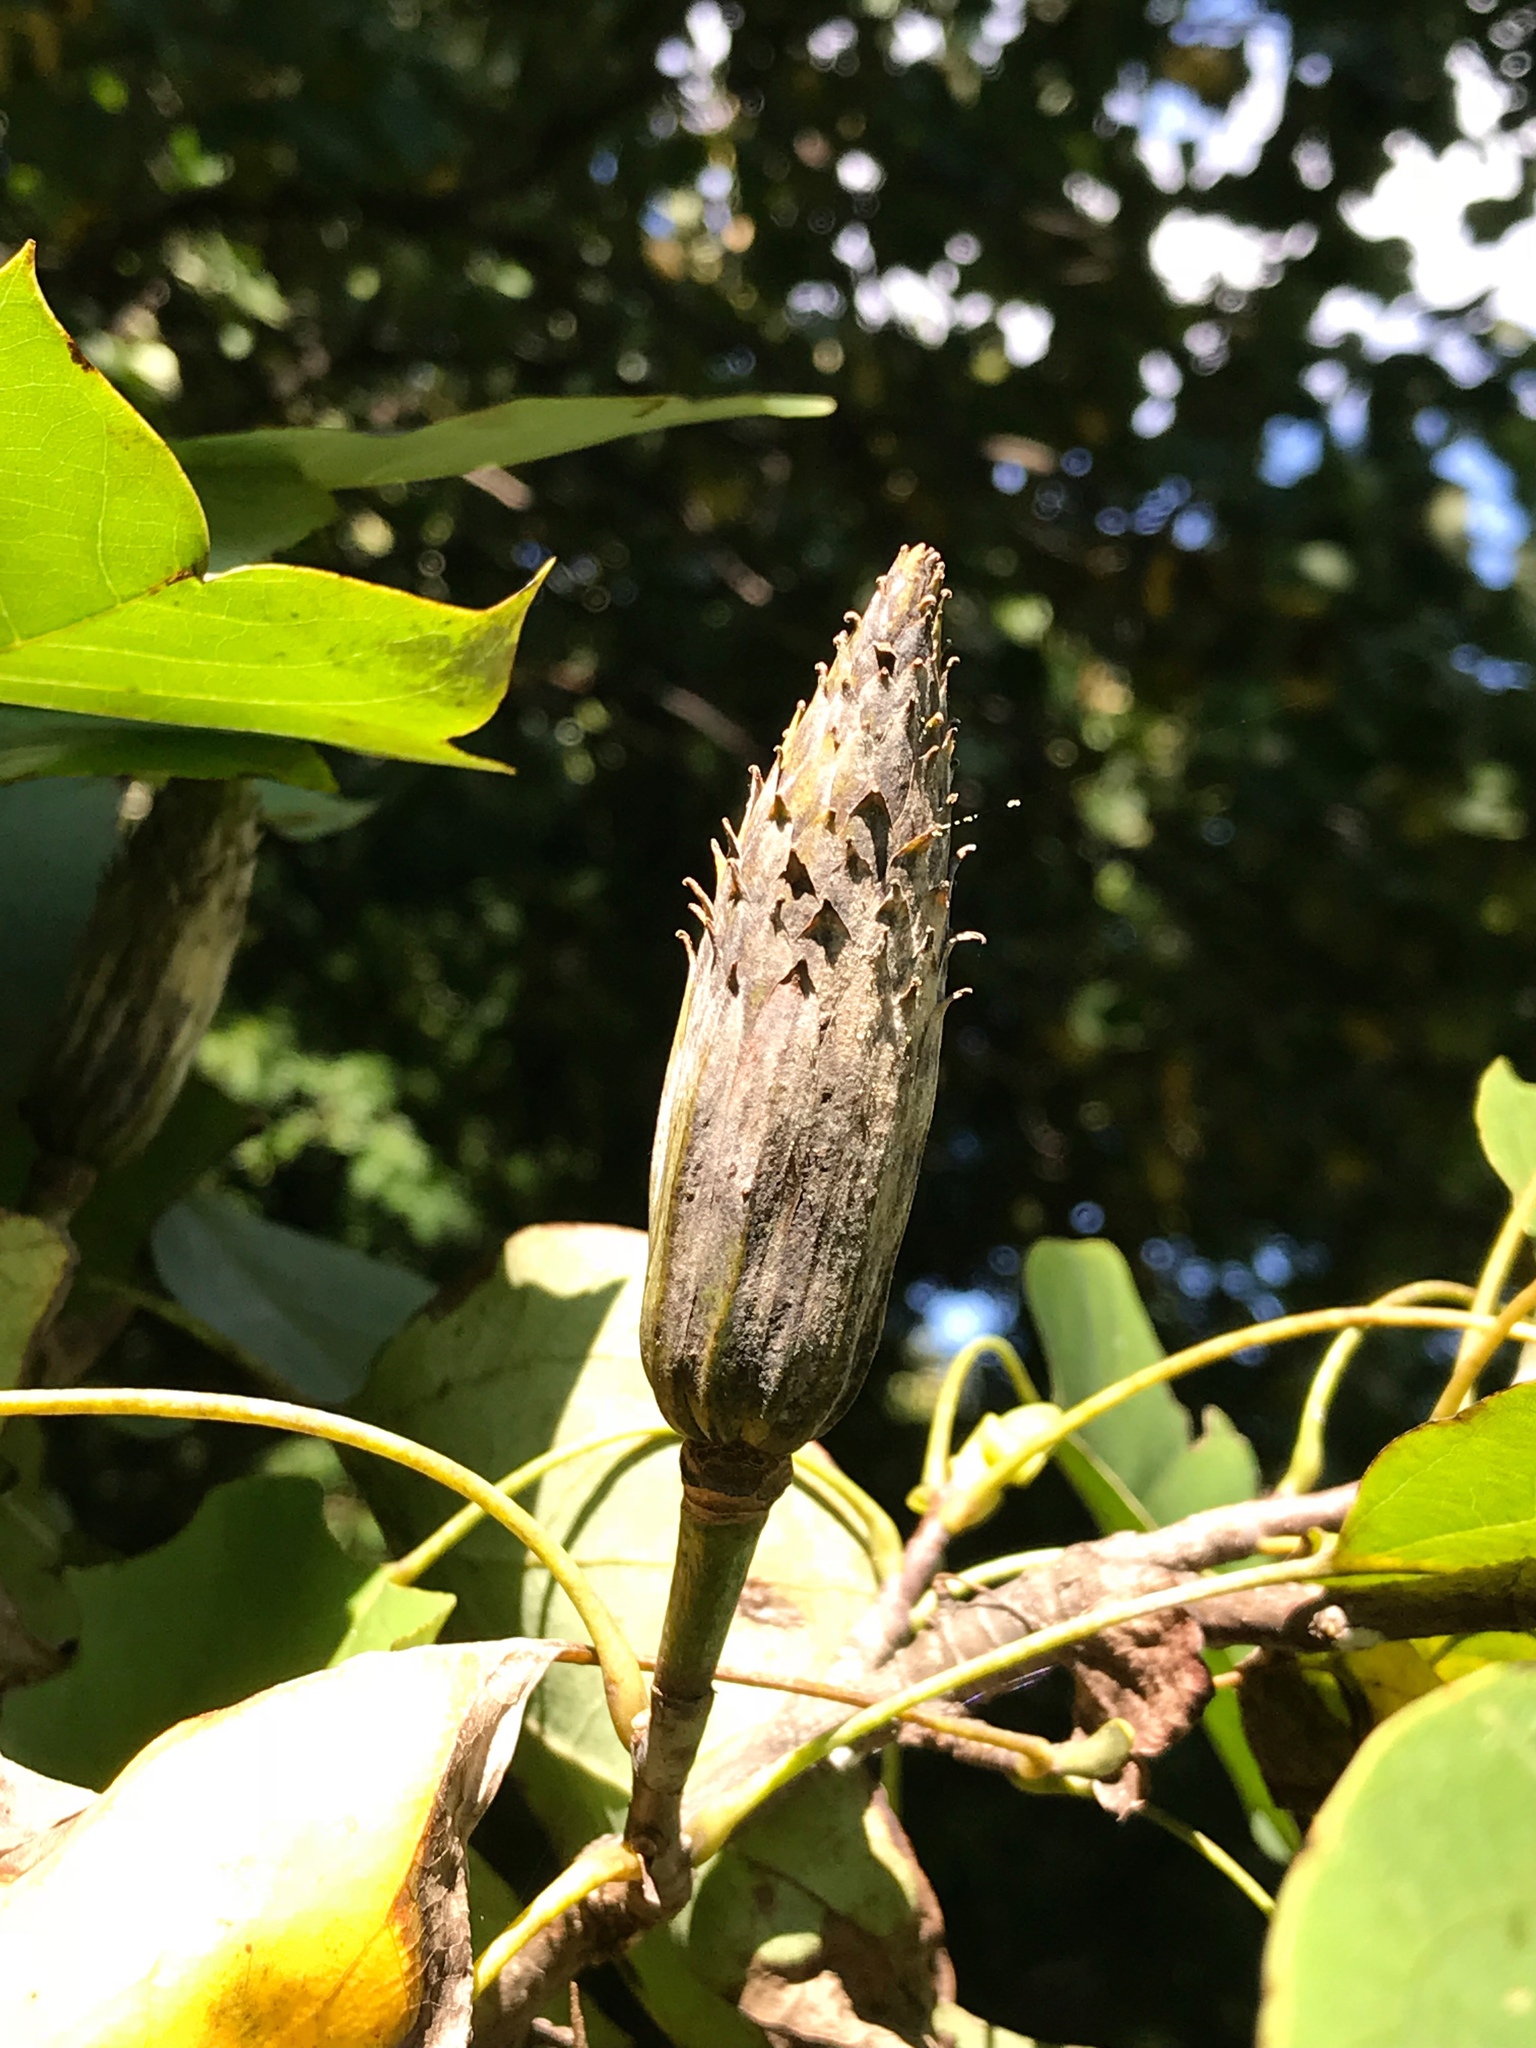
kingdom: Plantae
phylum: Tracheophyta
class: Magnoliopsida
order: Magnoliales
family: Magnoliaceae
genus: Liriodendron
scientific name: Liriodendron tulipifera
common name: Tulip tree
